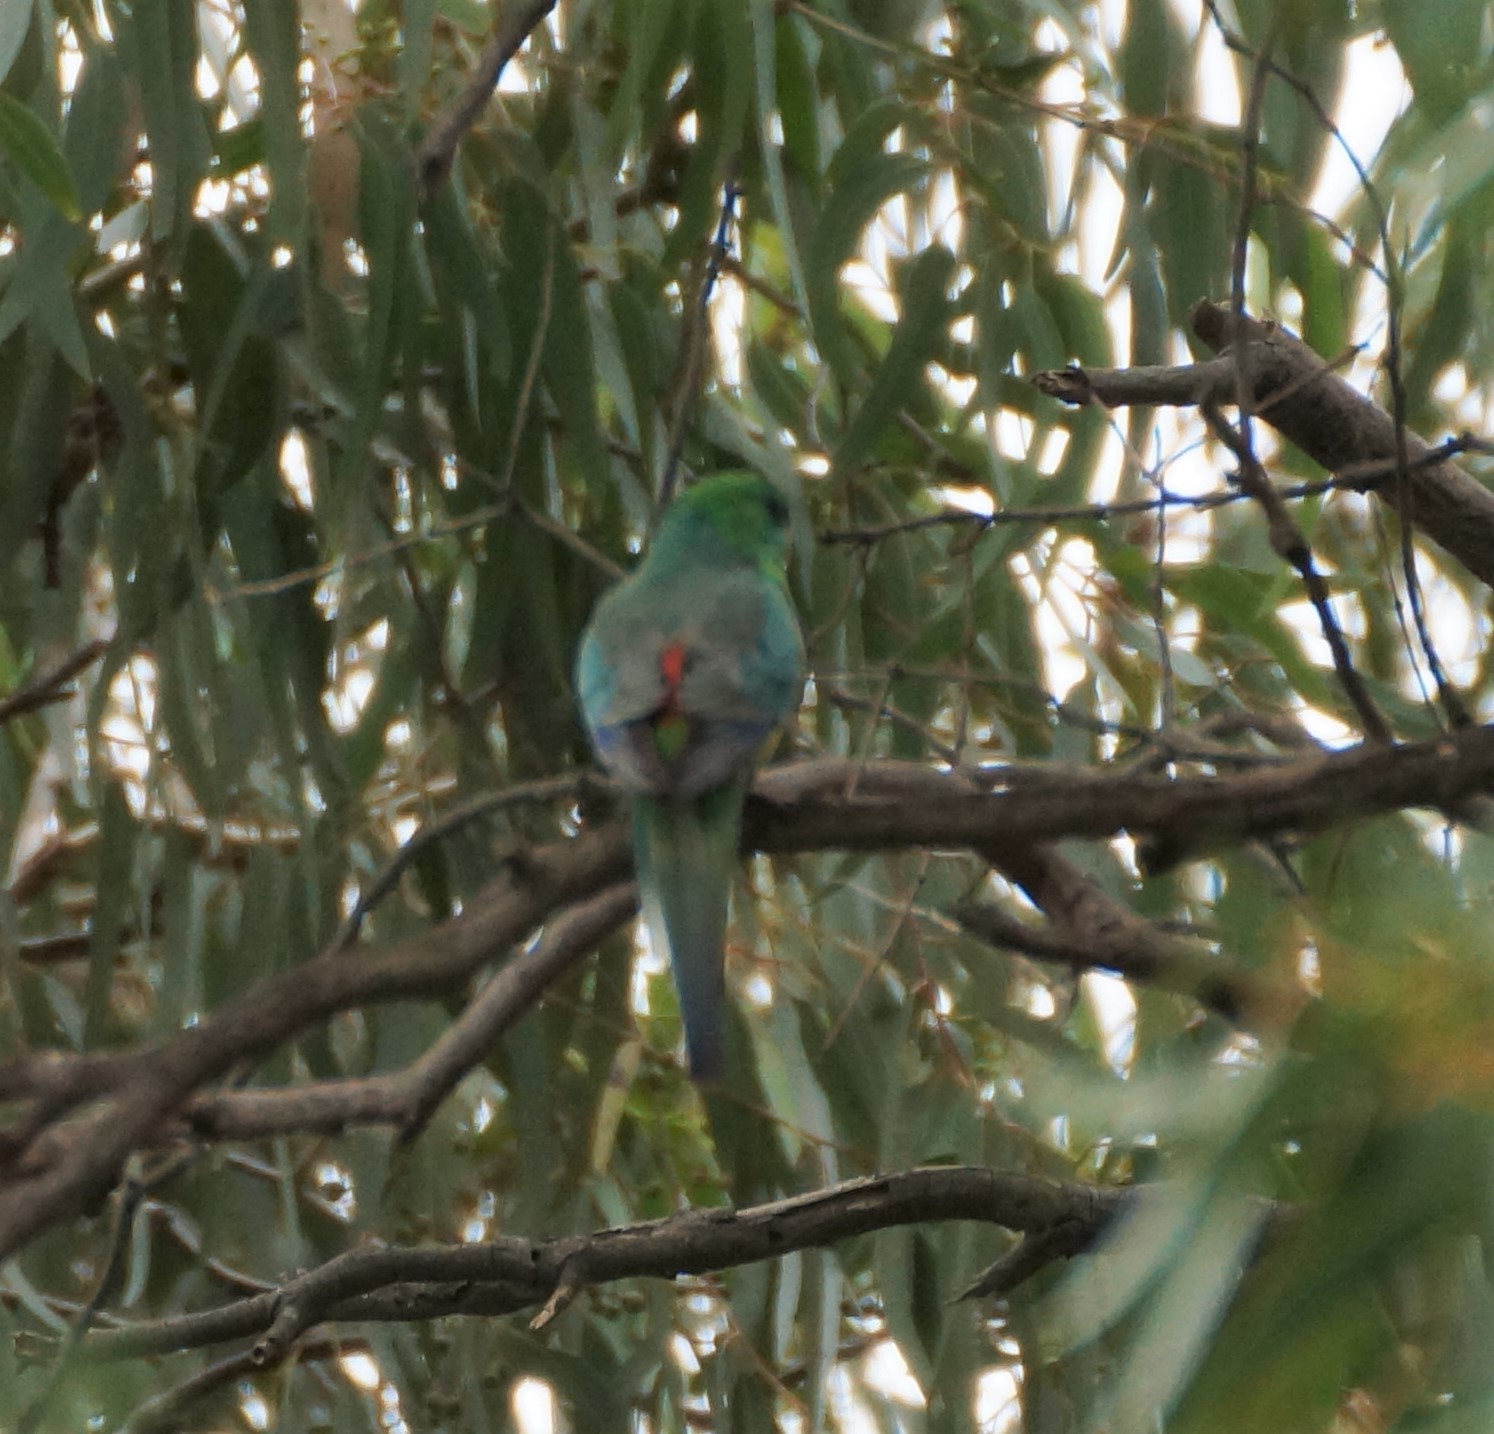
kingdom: Animalia
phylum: Chordata
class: Aves
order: Psittaciformes
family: Psittacidae
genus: Psephotus
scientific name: Psephotus haematonotus
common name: Red-rumped parrot
